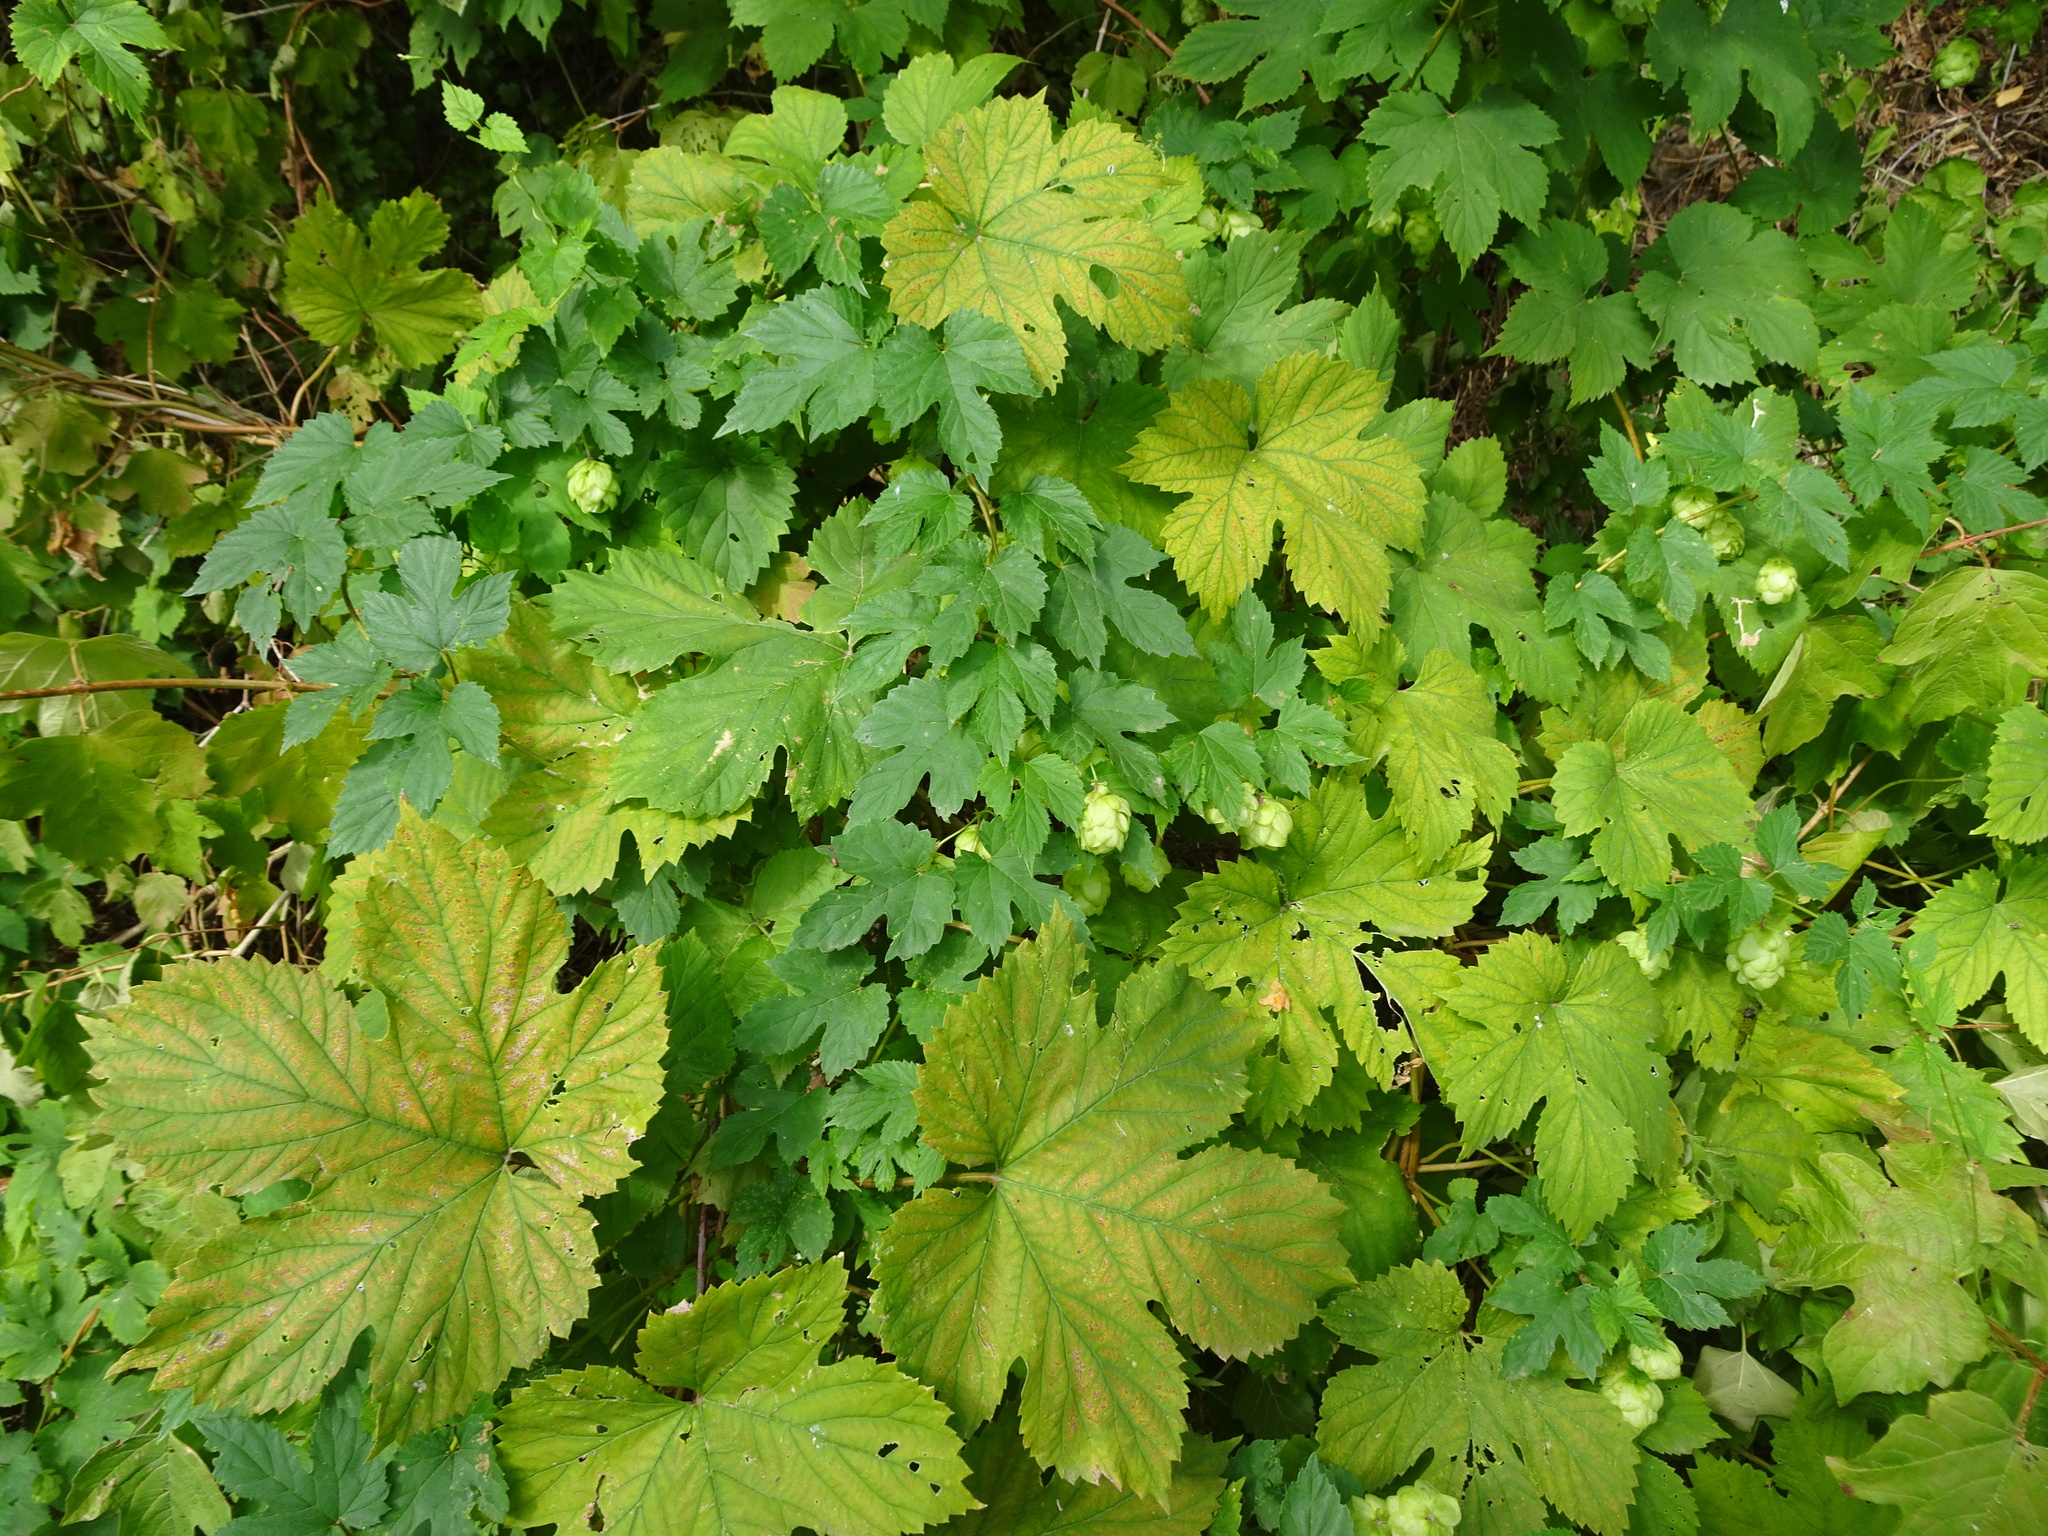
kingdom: Plantae
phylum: Tracheophyta
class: Magnoliopsida
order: Rosales
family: Cannabaceae
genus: Humulus
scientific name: Humulus lupulus
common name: Hop
